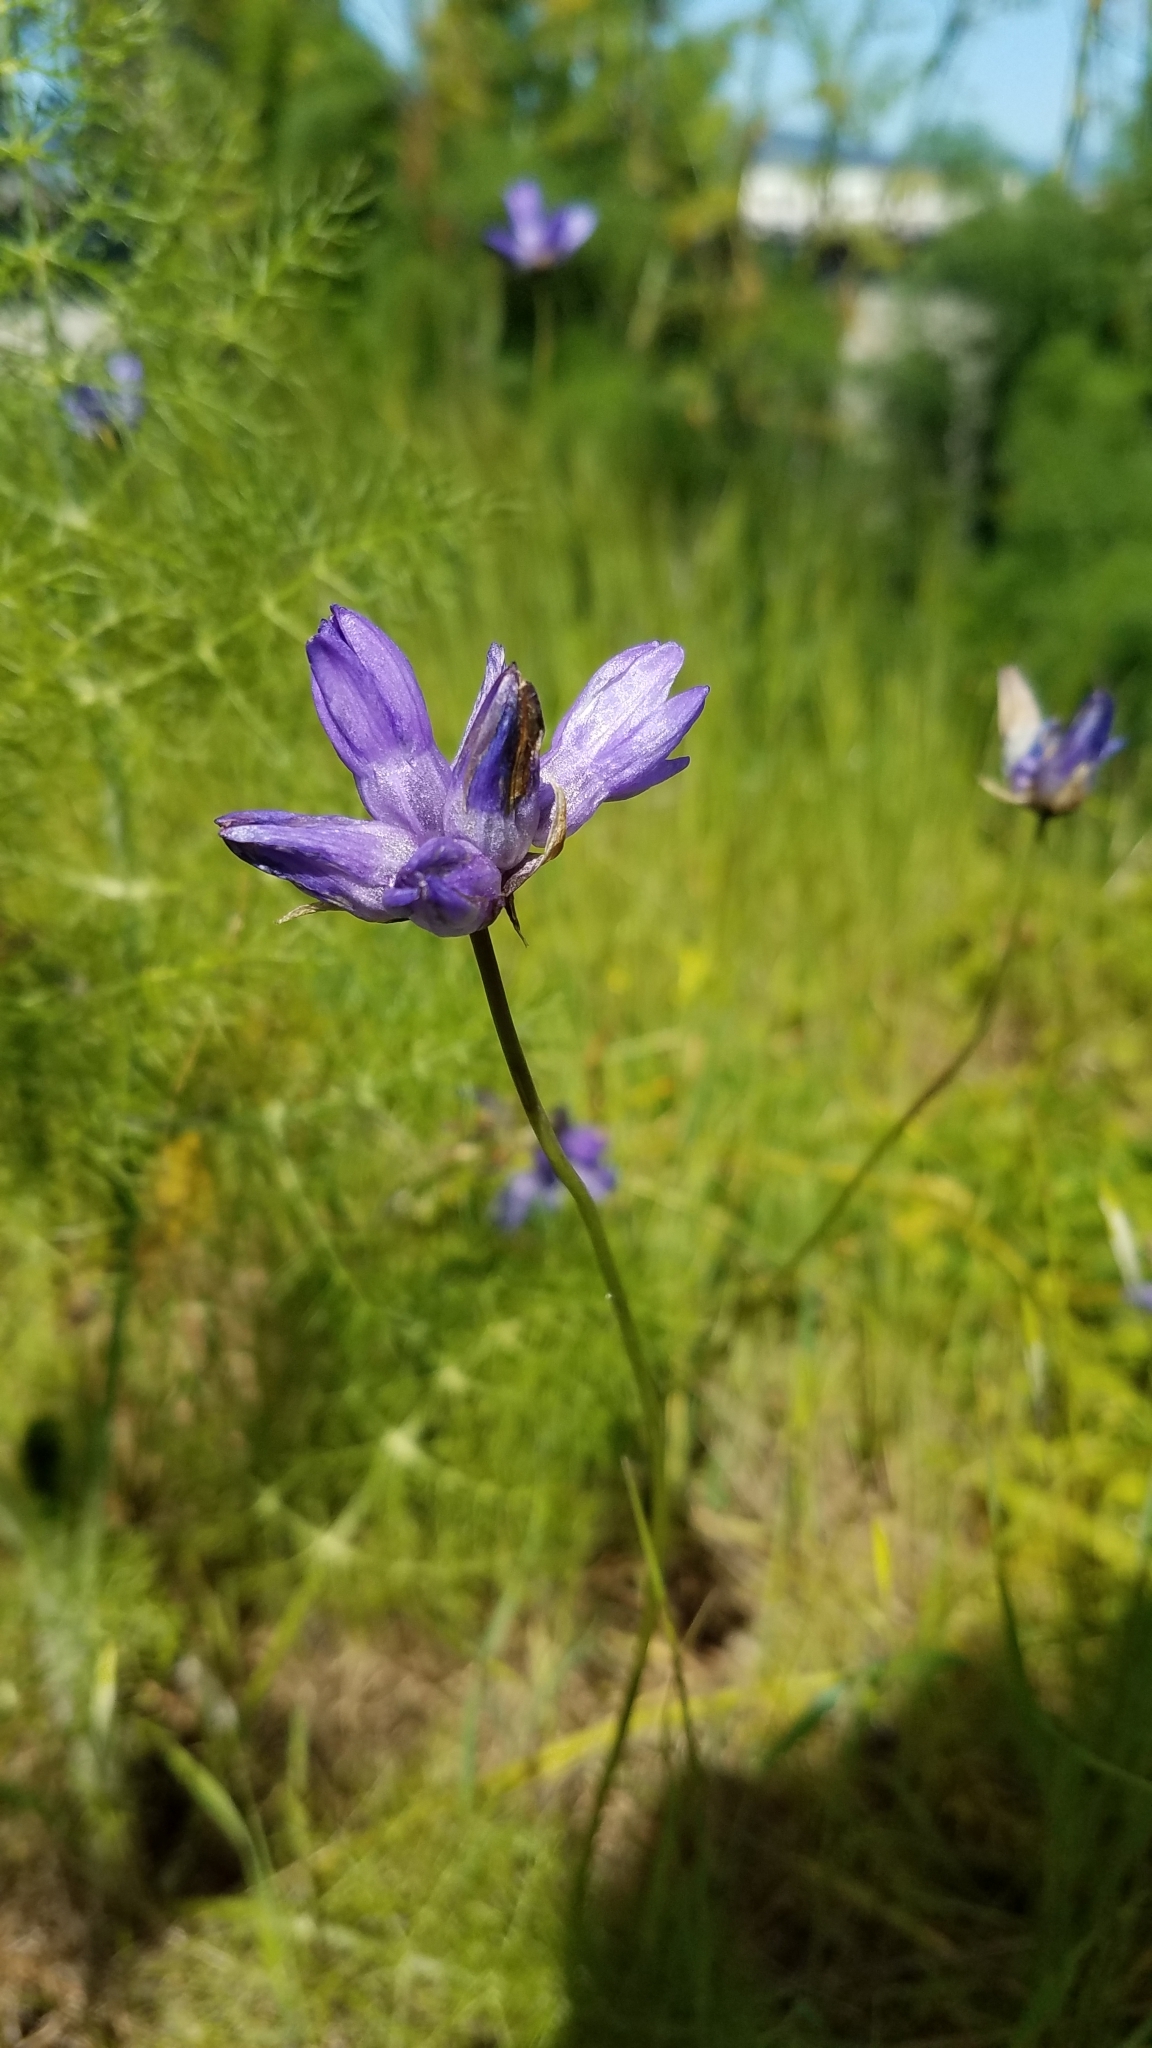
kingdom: Plantae
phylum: Tracheophyta
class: Liliopsida
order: Asparagales
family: Asparagaceae
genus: Dipterostemon
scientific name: Dipterostemon capitatus
